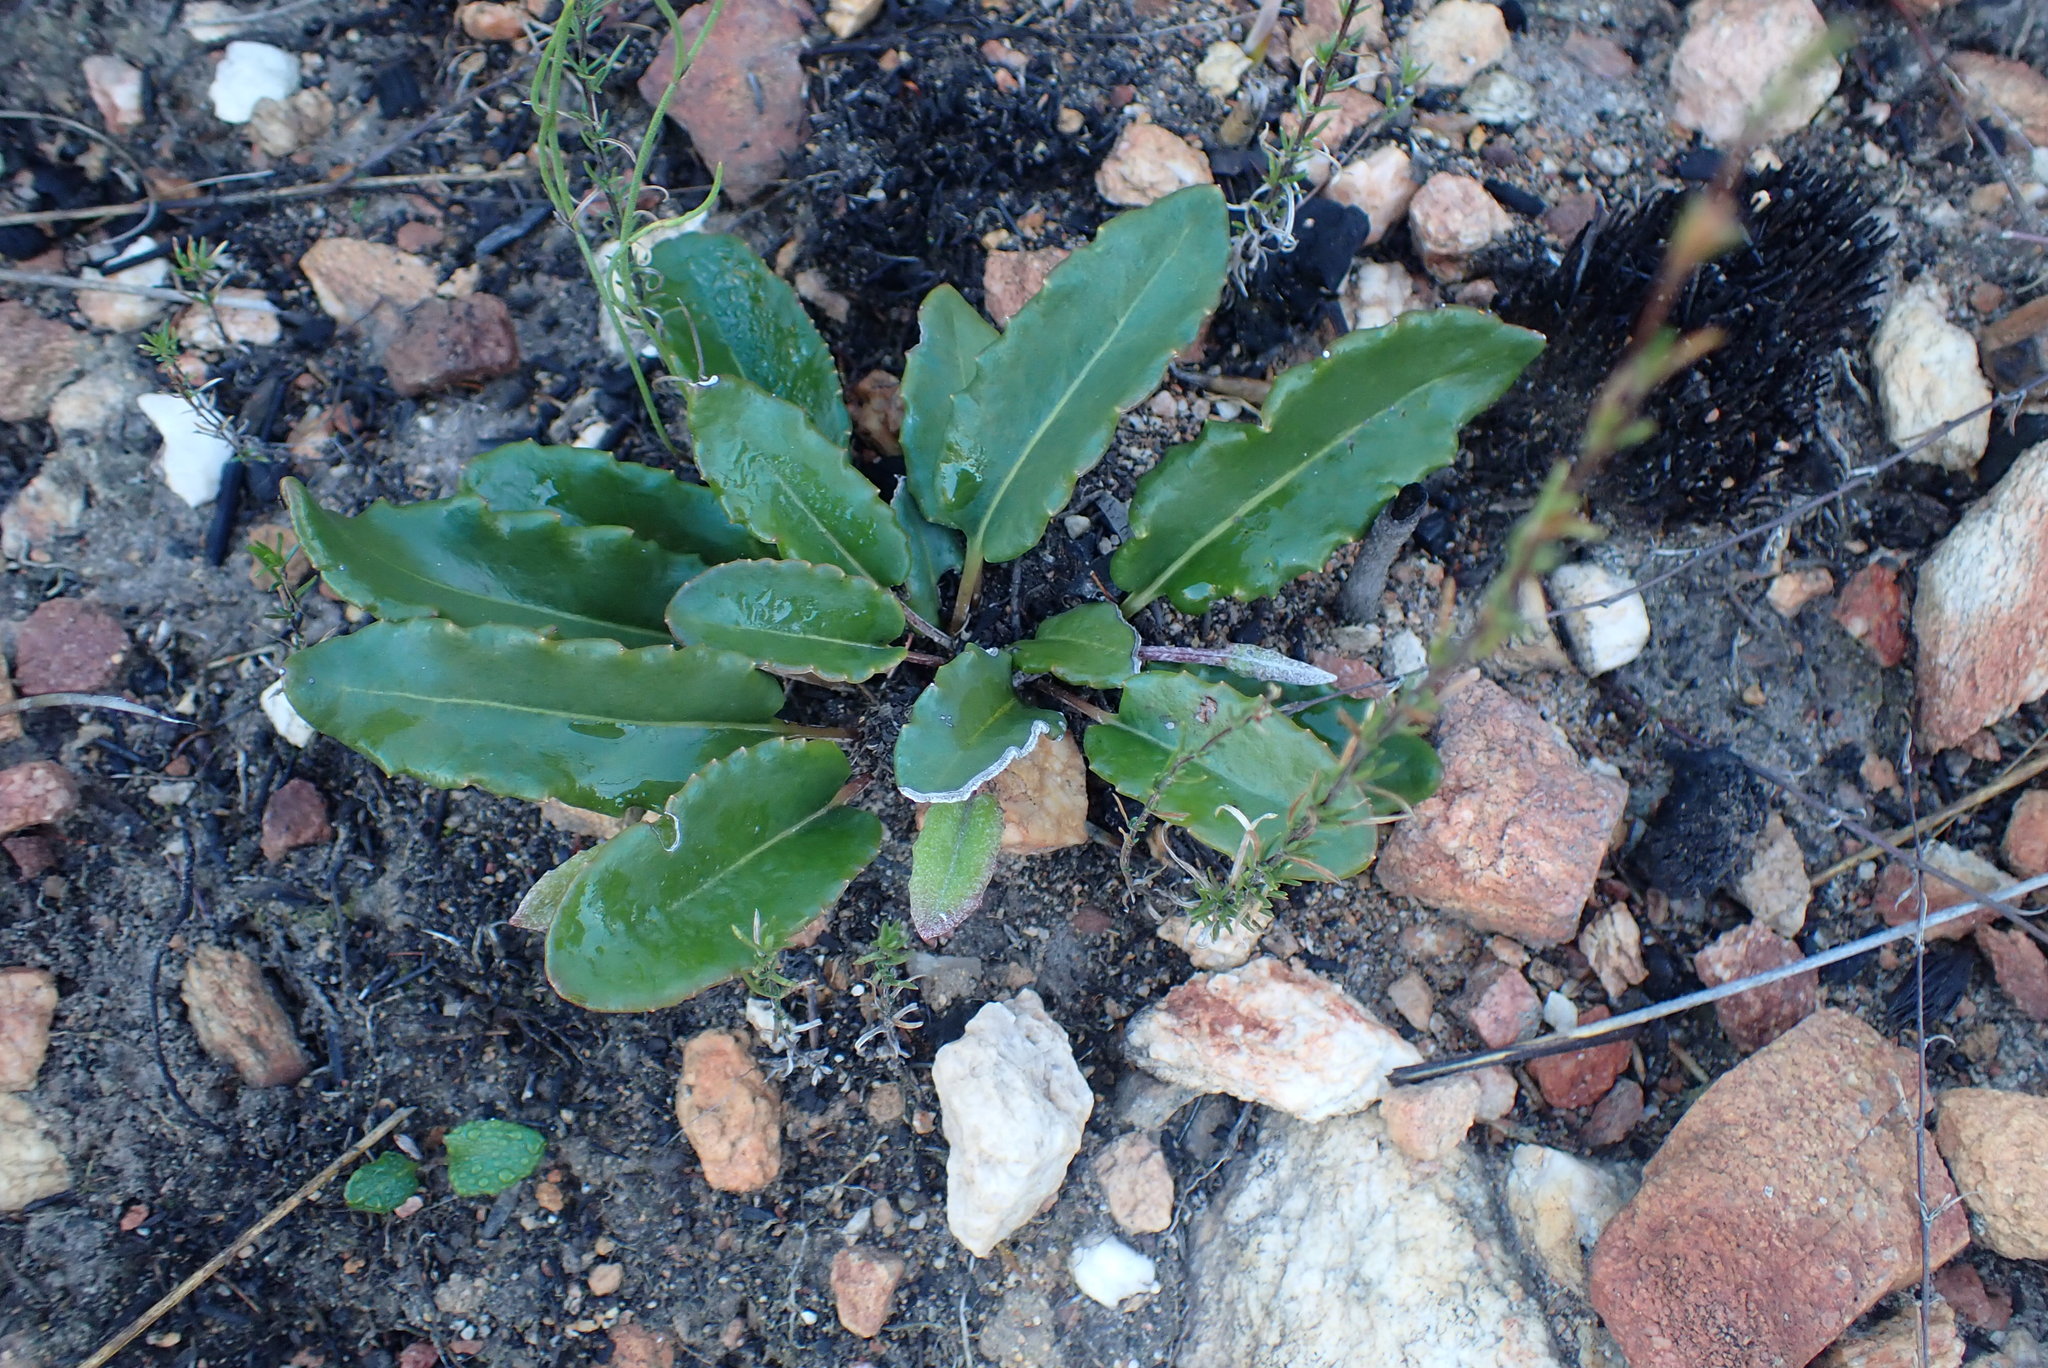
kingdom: Plantae
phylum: Tracheophyta
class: Magnoliopsida
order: Asterales
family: Asteraceae
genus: Gerbera
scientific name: Gerbera serrata
